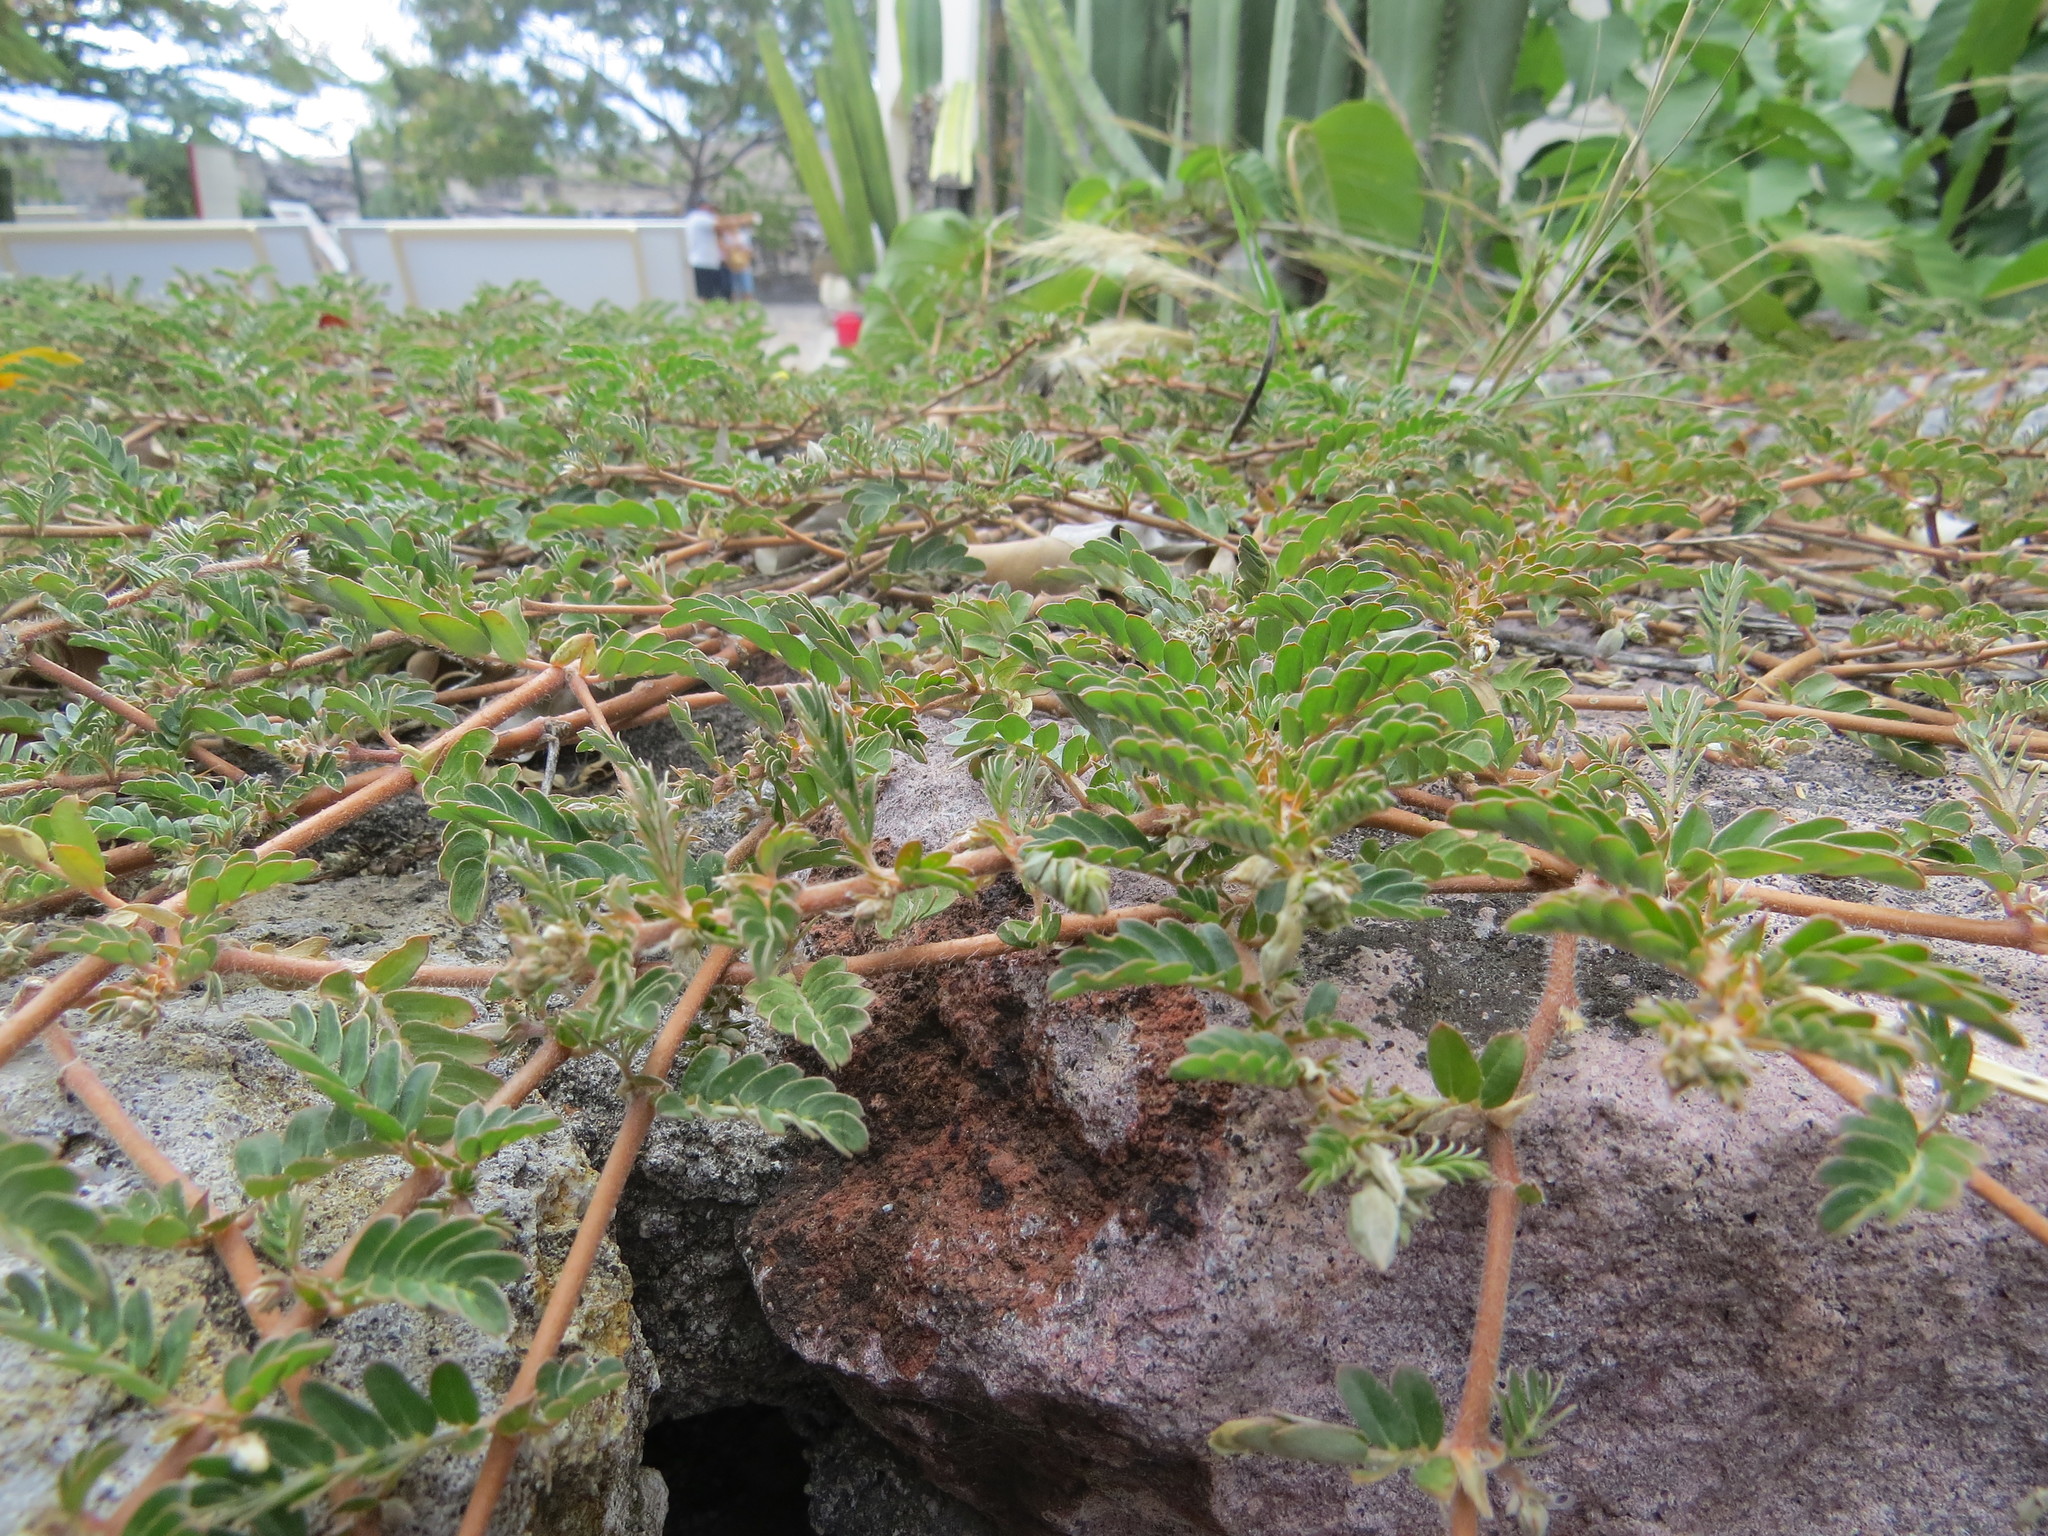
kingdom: Plantae
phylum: Tracheophyta
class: Magnoliopsida
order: Zygophyllales
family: Zygophyllaceae
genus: Tribulus
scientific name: Tribulus terrestris
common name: Puncturevine
